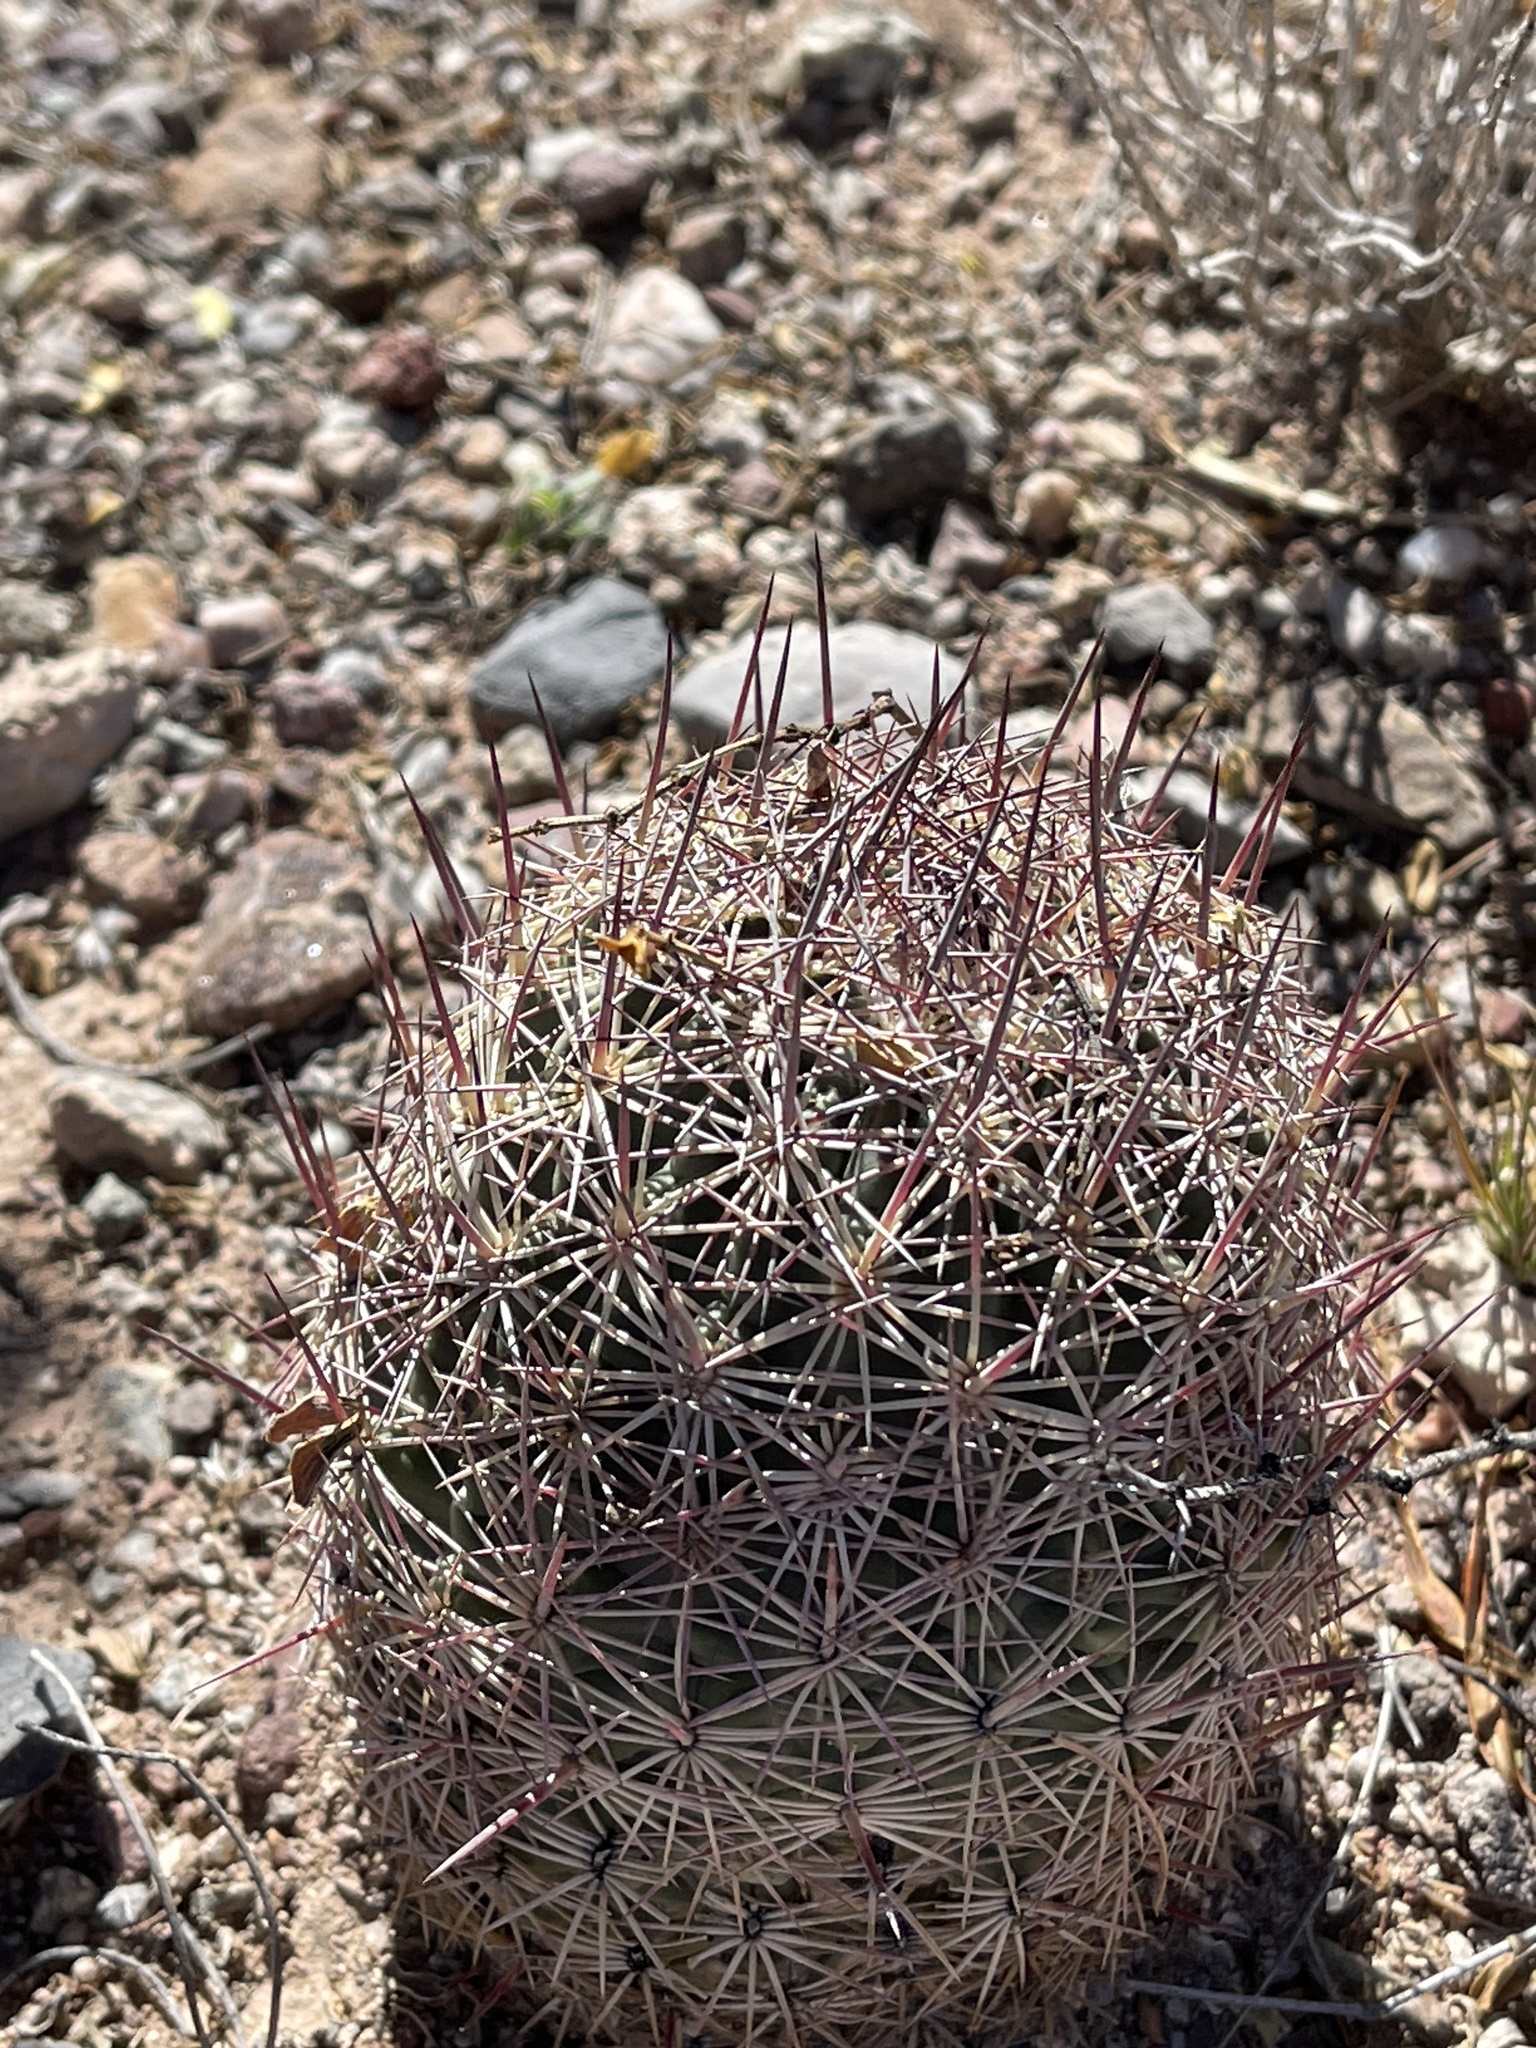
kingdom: Plantae
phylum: Tracheophyta
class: Magnoliopsida
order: Caryophyllales
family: Cactaceae
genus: Sclerocactus
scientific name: Sclerocactus johnsonii
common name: Eight-spine fishhook cactus
